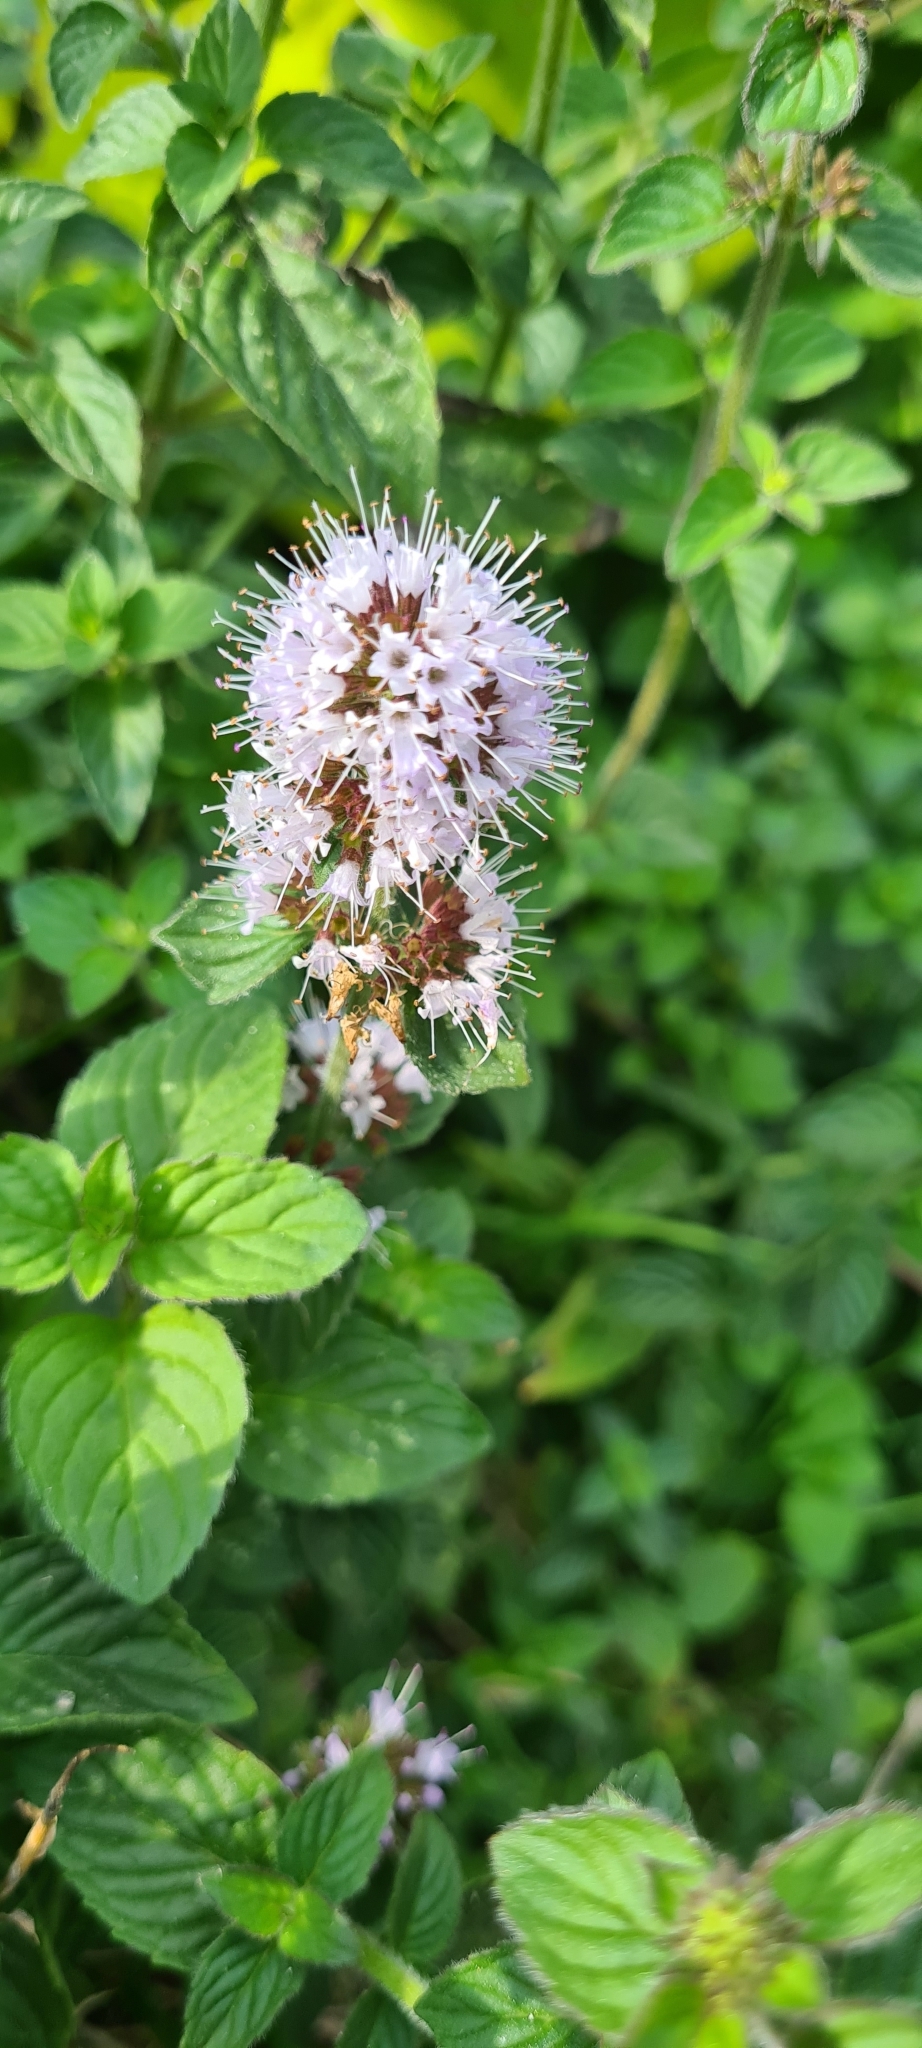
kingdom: Plantae
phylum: Tracheophyta
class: Magnoliopsida
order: Lamiales
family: Lamiaceae
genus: Mentha
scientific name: Mentha aquatica
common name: Water mint
